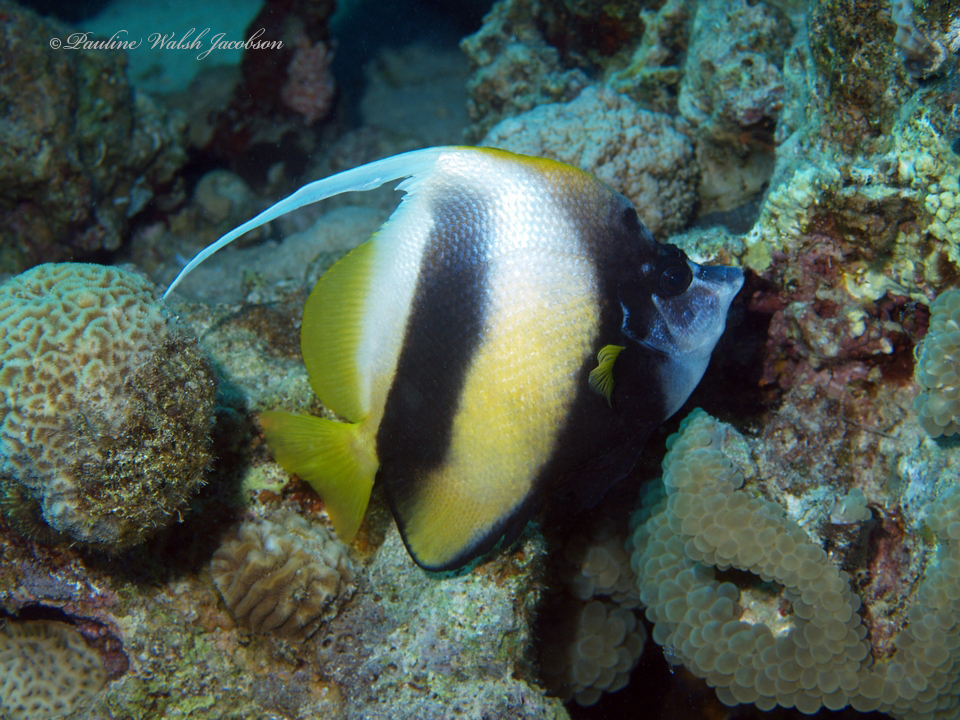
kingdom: Animalia
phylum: Chordata
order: Perciformes
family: Chaetodontidae
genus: Heniochus
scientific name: Heniochus intermedius
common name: Red sea bannerfish
